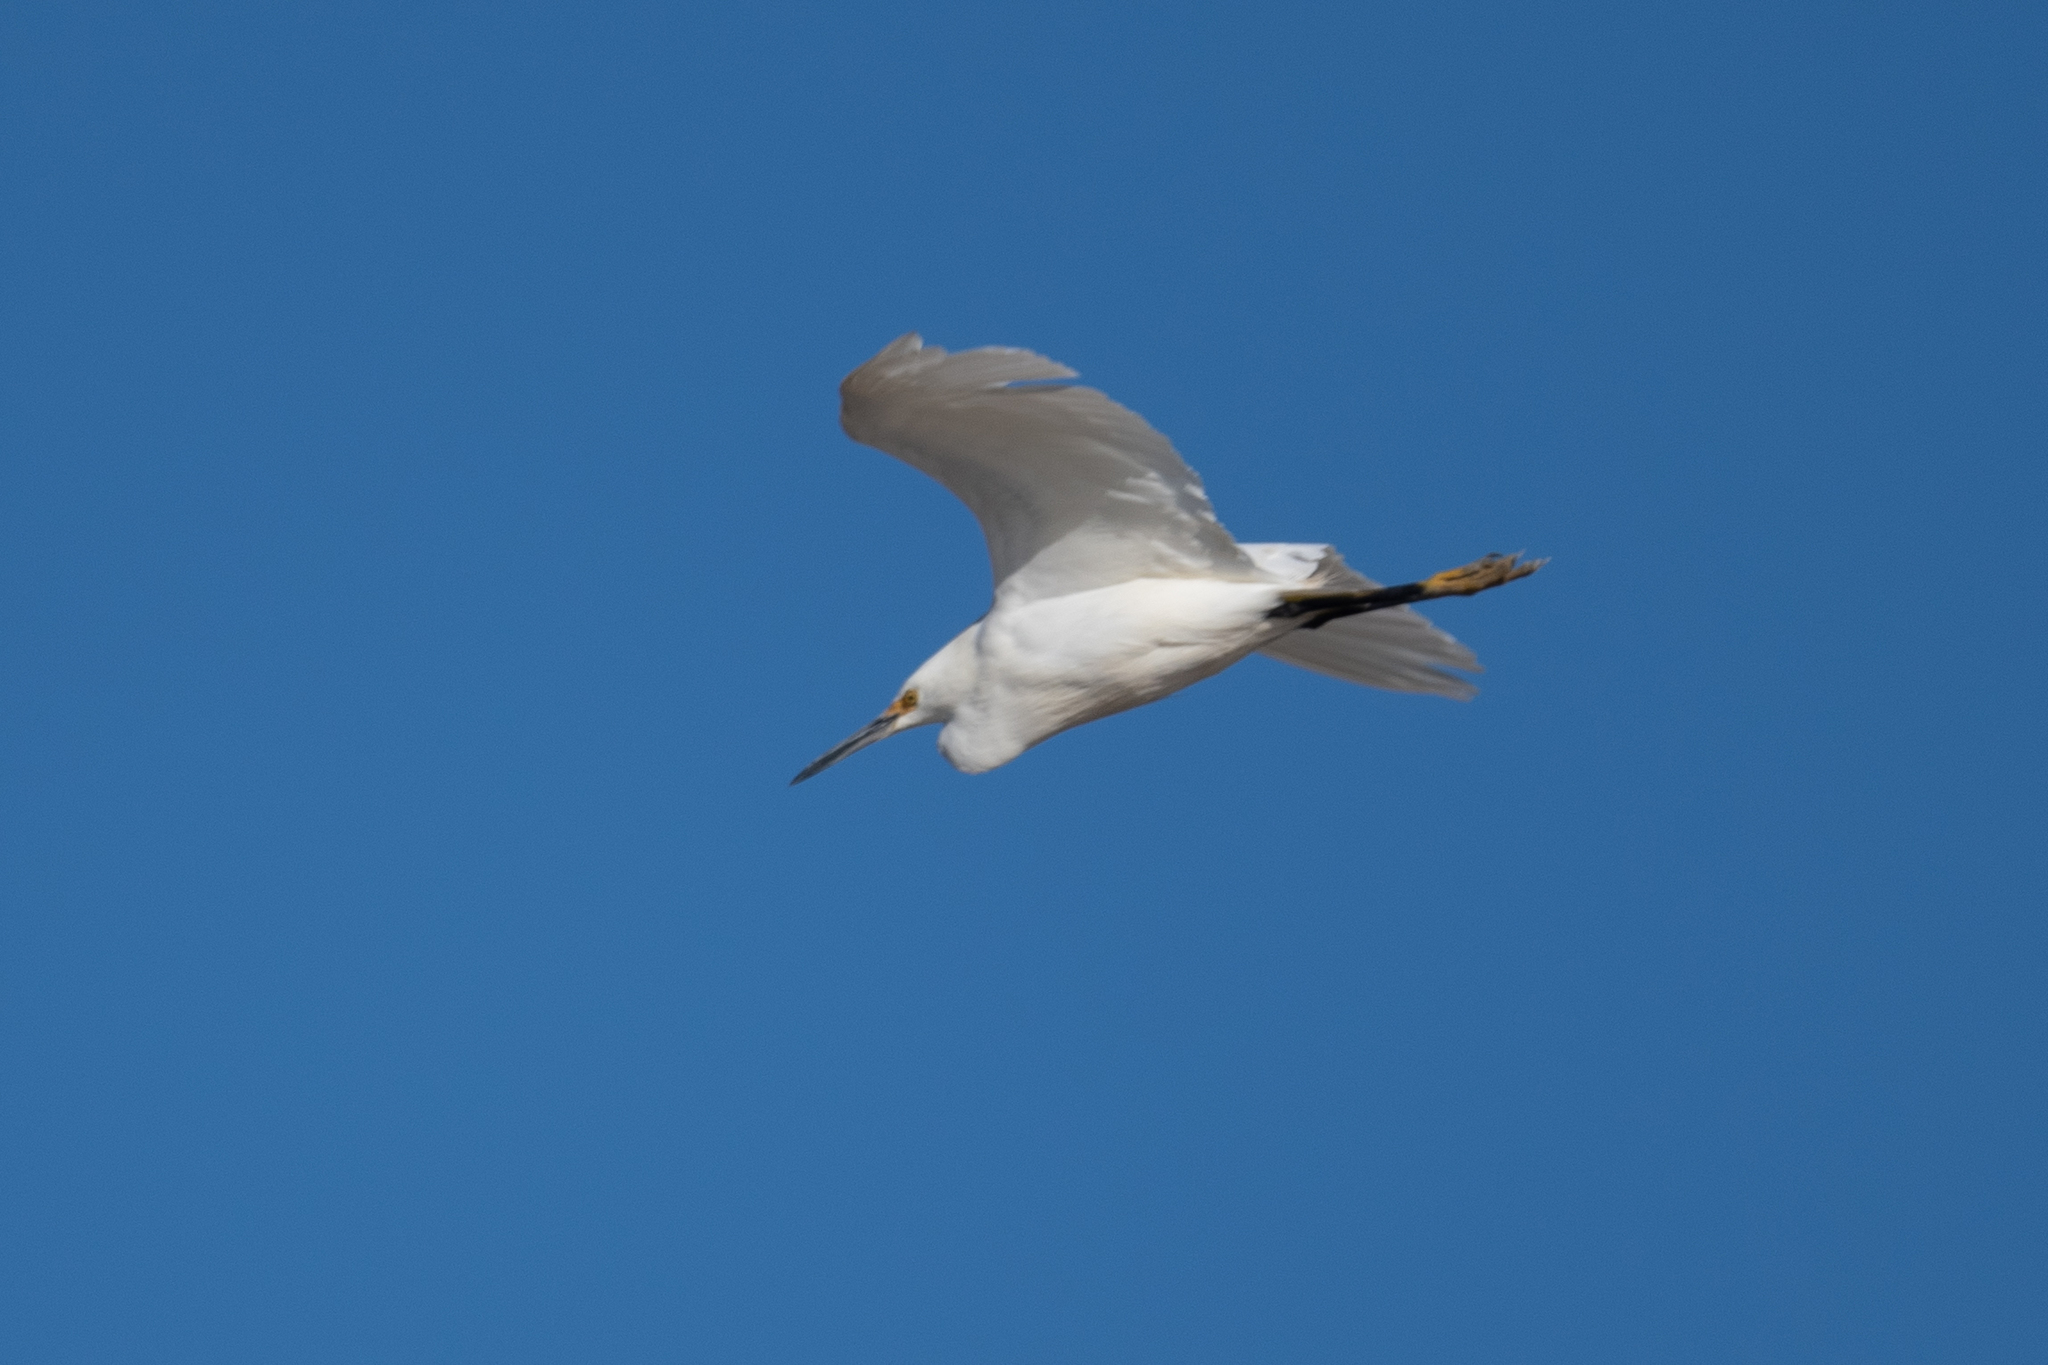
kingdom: Animalia
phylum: Chordata
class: Aves
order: Pelecaniformes
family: Ardeidae
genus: Egretta
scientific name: Egretta thula
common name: Snowy egret
